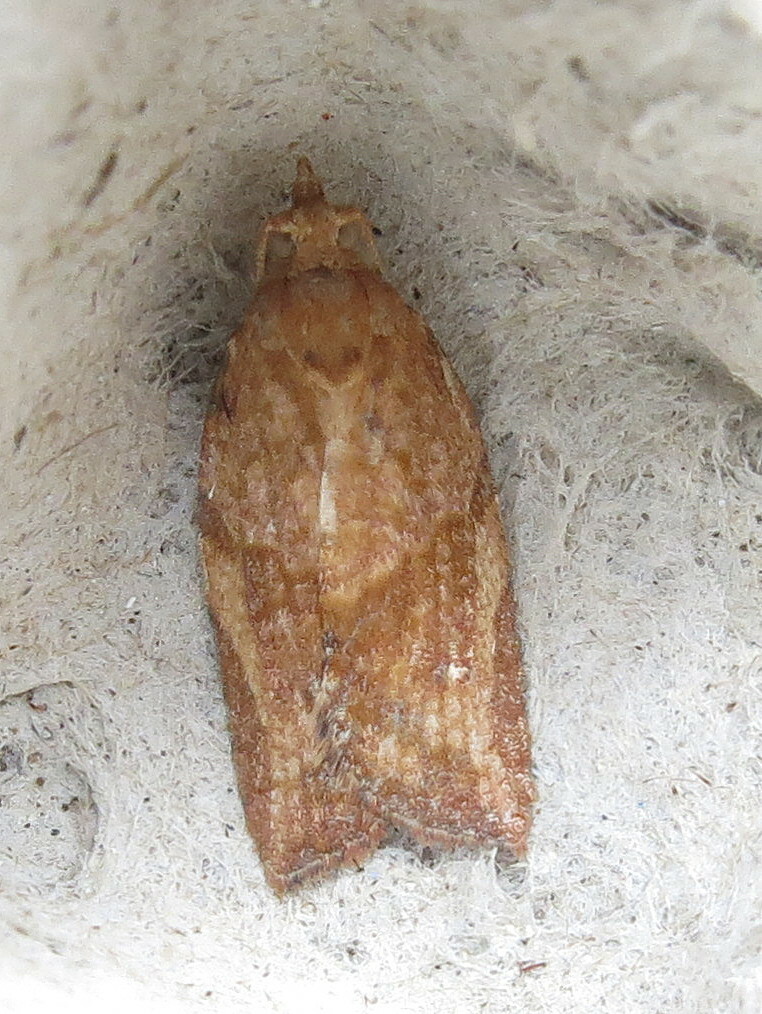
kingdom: Animalia
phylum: Arthropoda
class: Insecta
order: Lepidoptera
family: Tortricidae
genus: Epiphyas
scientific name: Epiphyas postvittana
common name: Light brown apple moth
